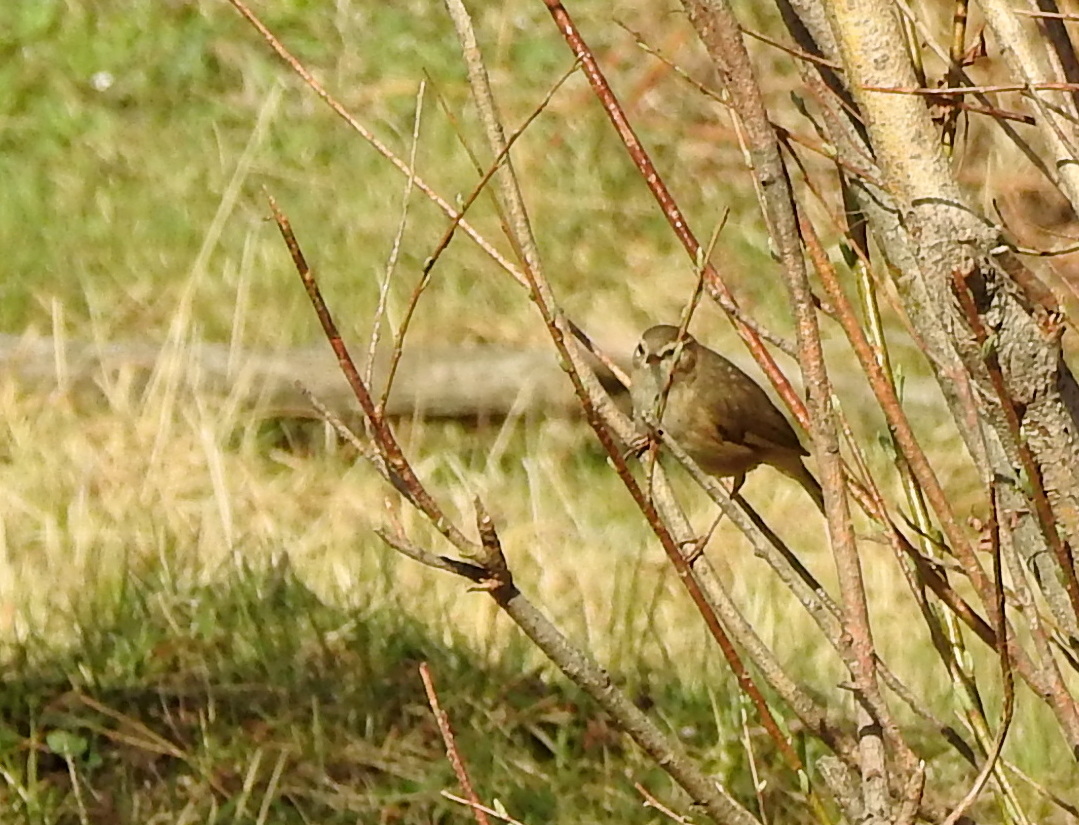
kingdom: Animalia
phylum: Chordata
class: Aves
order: Passeriformes
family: Phylloscopidae
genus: Phylloscopus
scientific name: Phylloscopus fuscatus
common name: Dusky warbler
